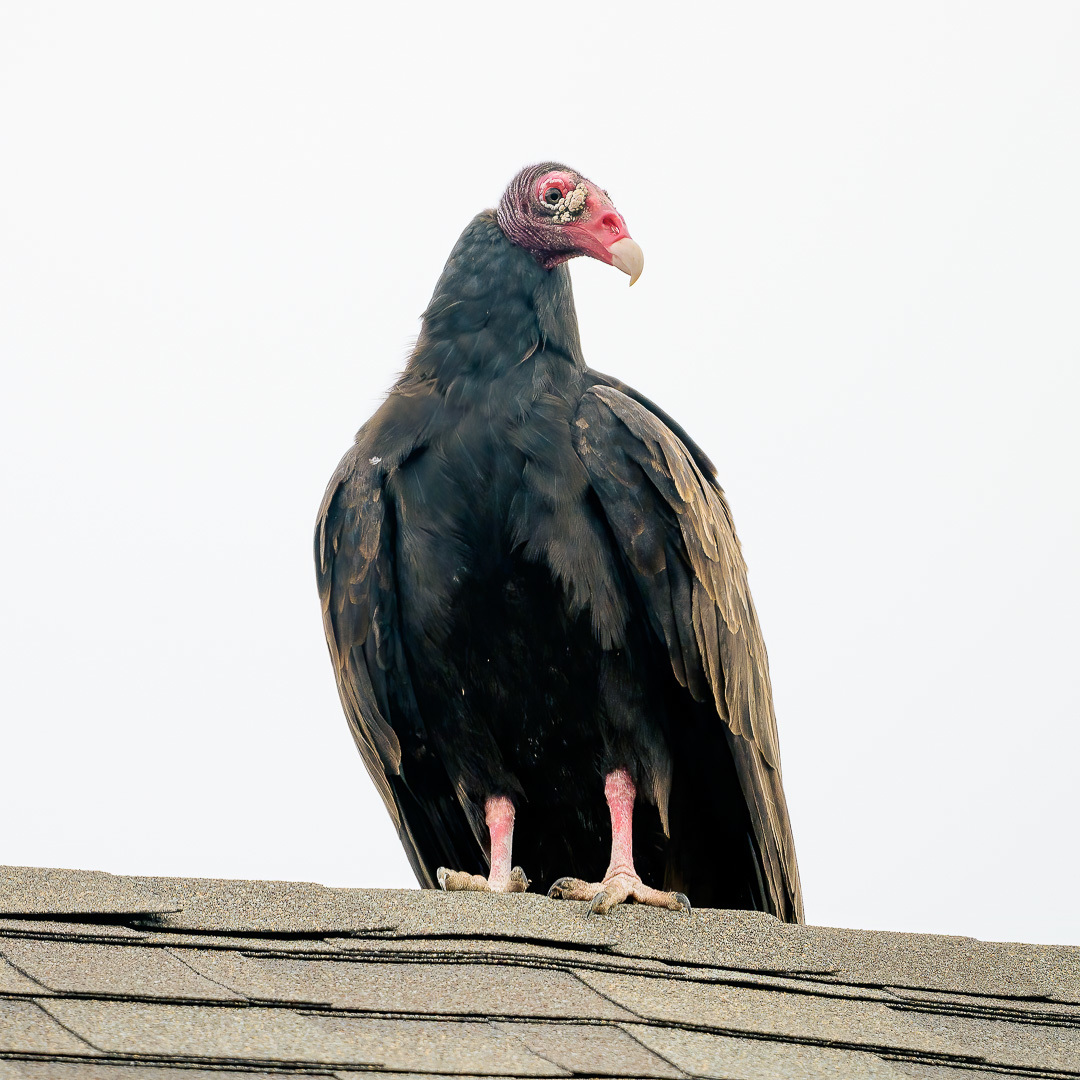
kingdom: Animalia
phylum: Chordata
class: Aves
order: Accipitriformes
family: Cathartidae
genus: Cathartes
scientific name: Cathartes aura
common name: Turkey vulture
